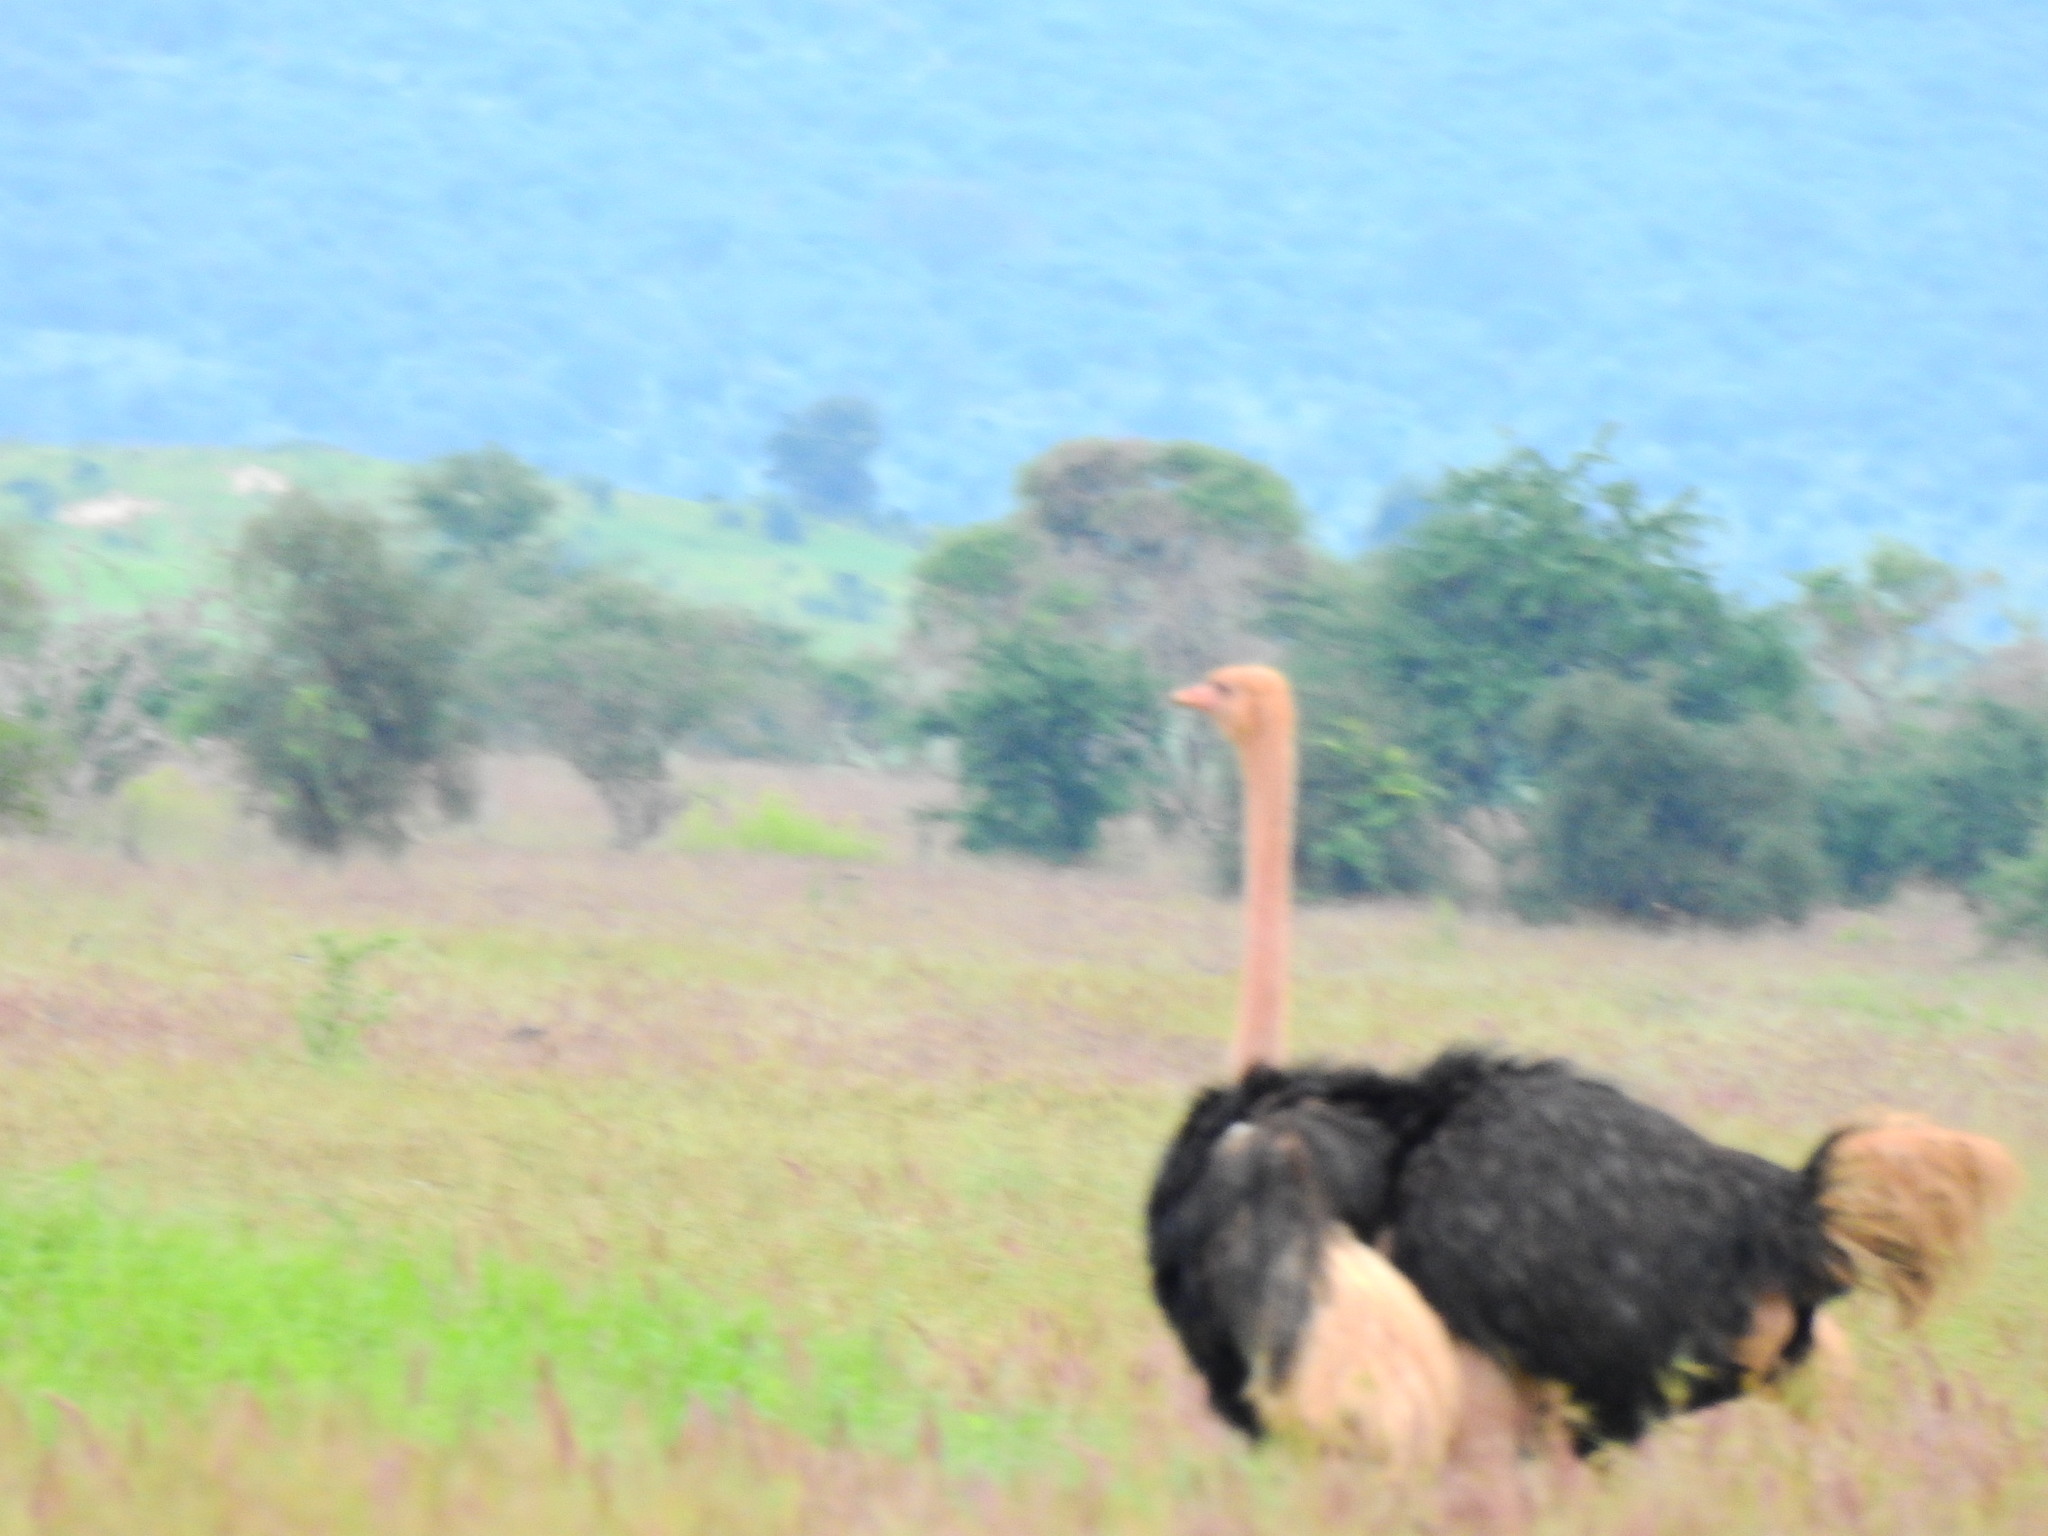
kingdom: Animalia
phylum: Chordata
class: Aves
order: Struthioniformes
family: Struthionidae
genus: Struthio
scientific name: Struthio camelus
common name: Common ostrich
